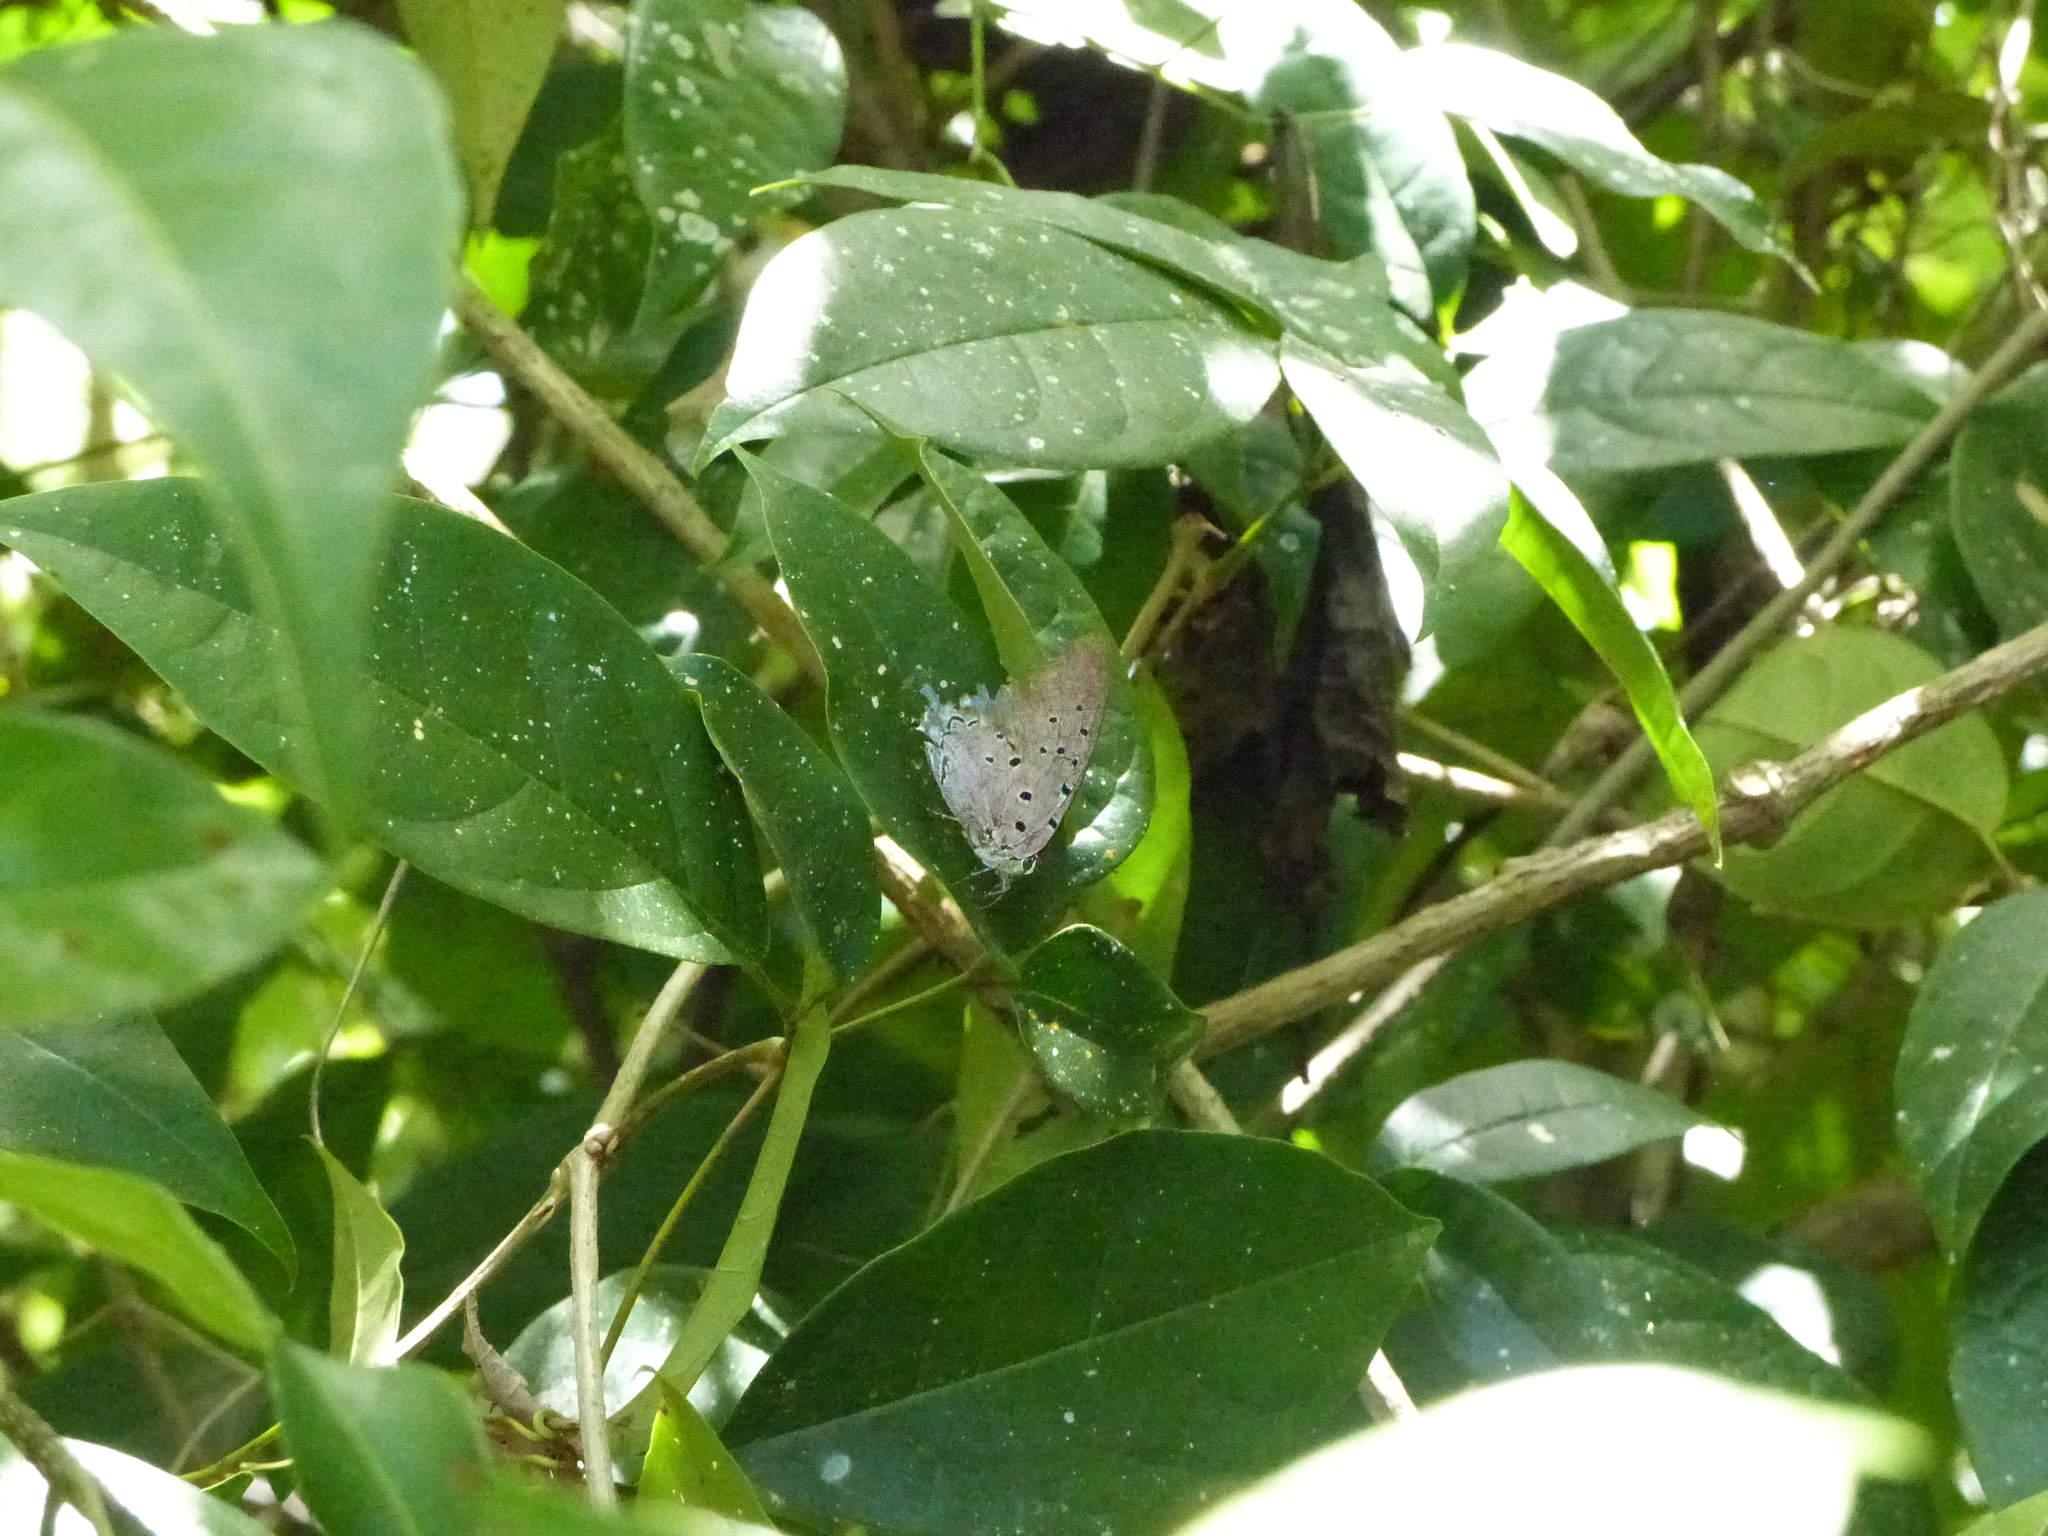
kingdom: Animalia
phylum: Arthropoda
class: Insecta
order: Lepidoptera
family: Lycaenidae
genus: Pseudolycaena
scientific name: Pseudolycaena marsyas
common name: Marsyas hairstreak
